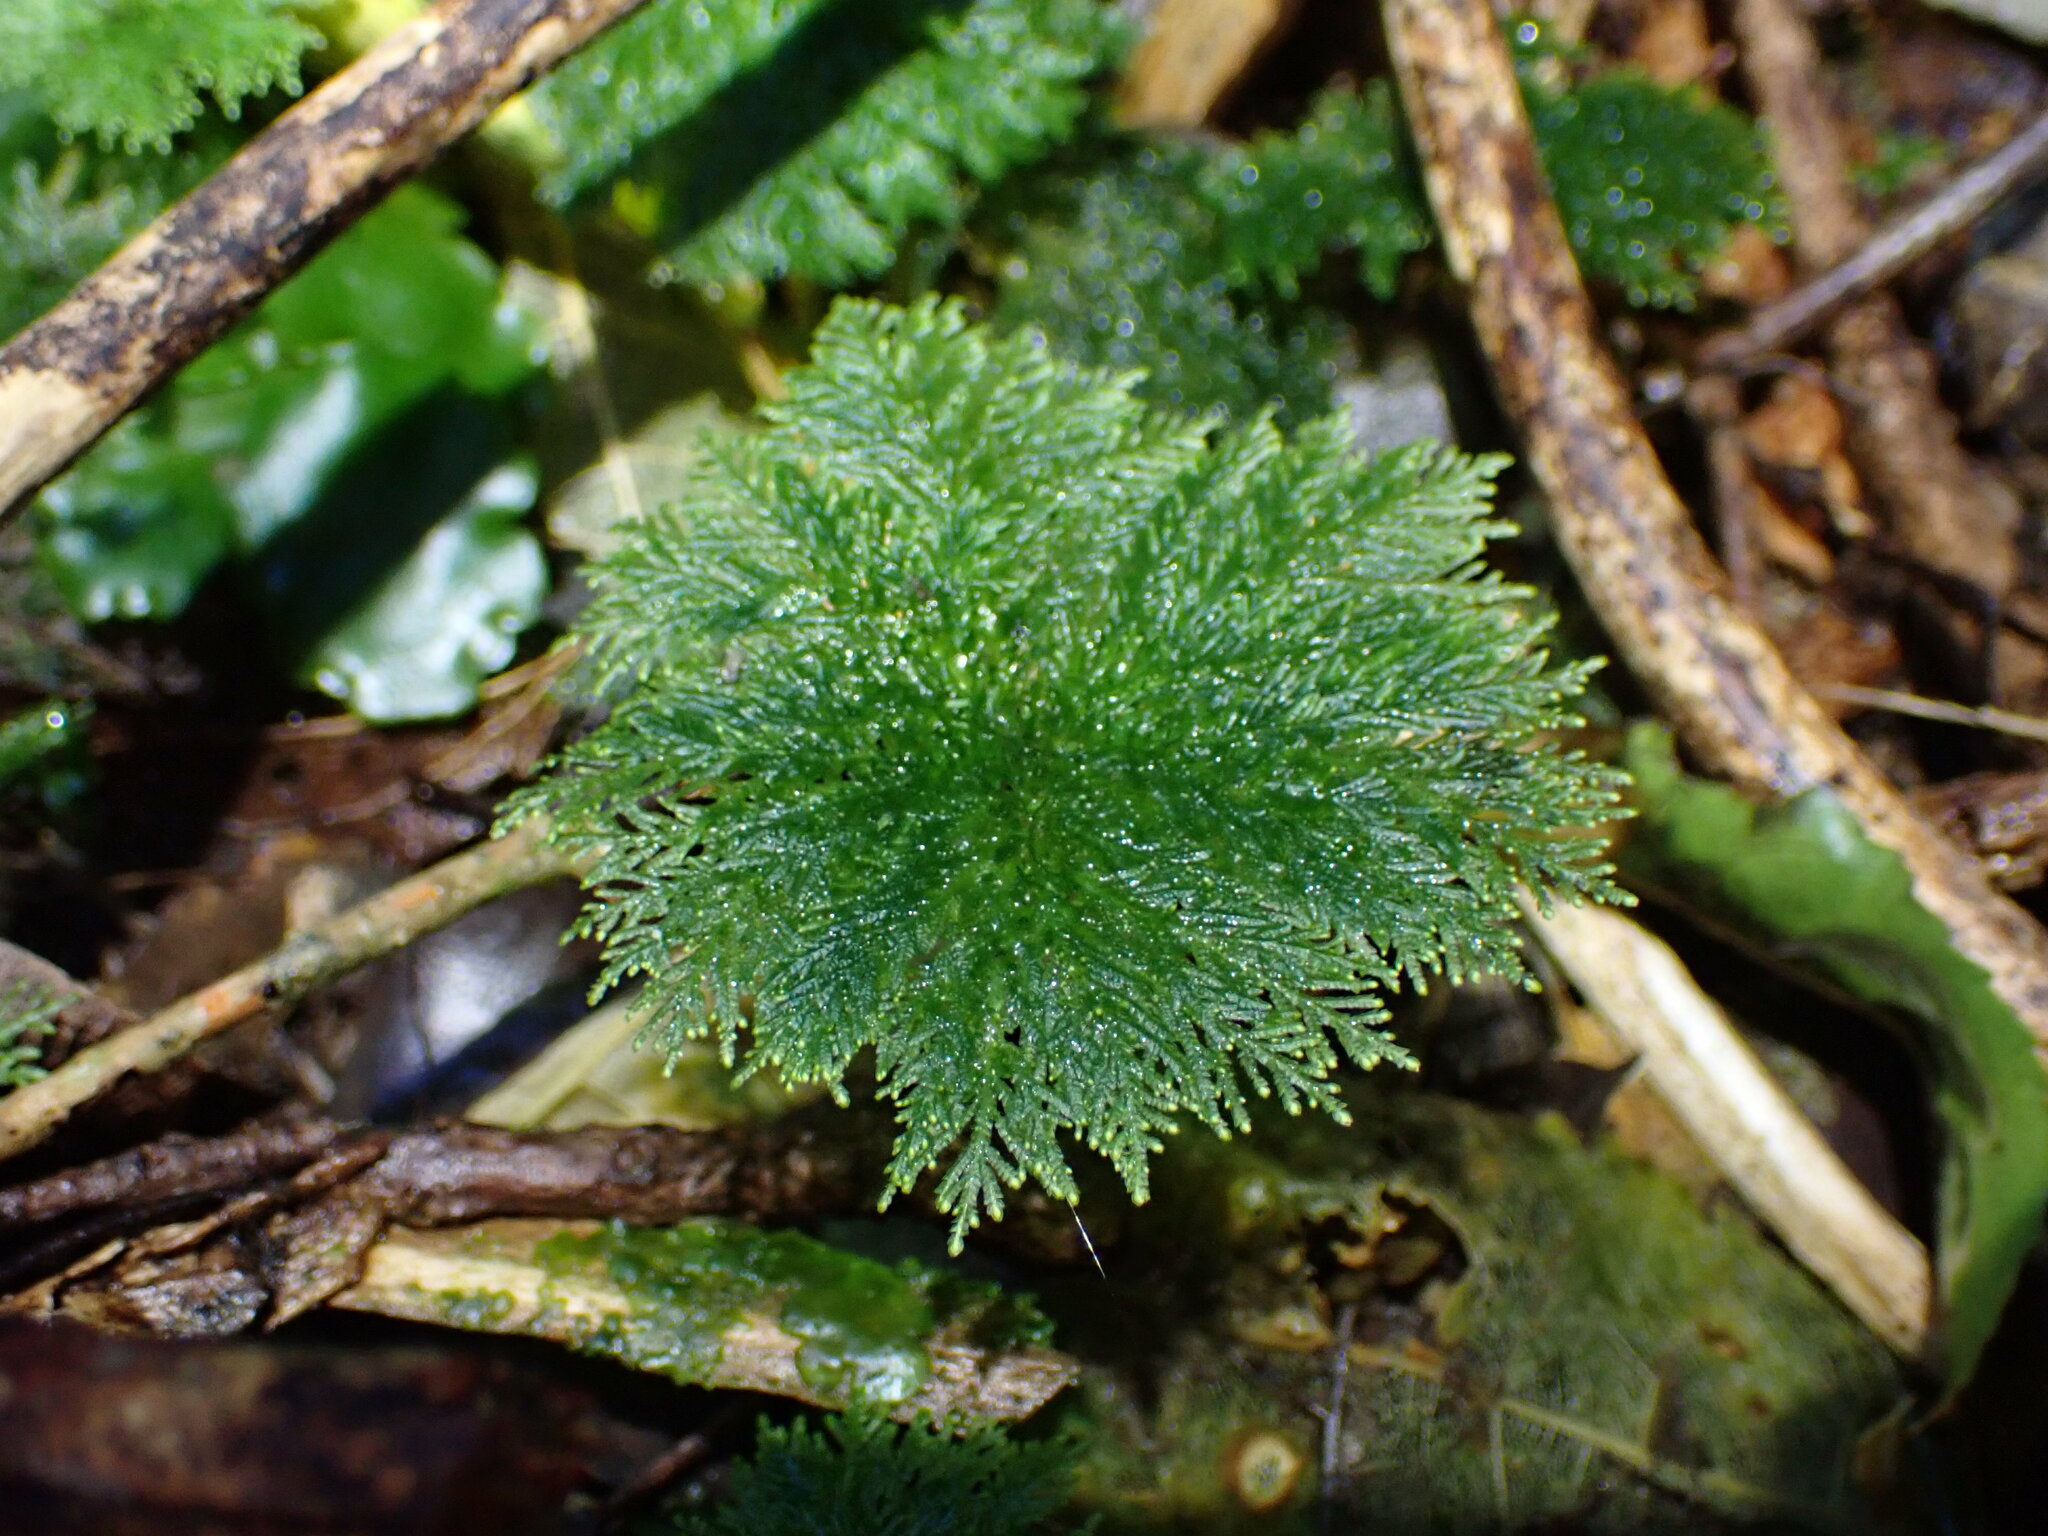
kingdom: Plantae
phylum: Bryophyta
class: Bryopsida
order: Hypopterygiales
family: Hypopterygiaceae
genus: Dendrohypopterygium
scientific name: Dendrohypopterygium filiculiforme
